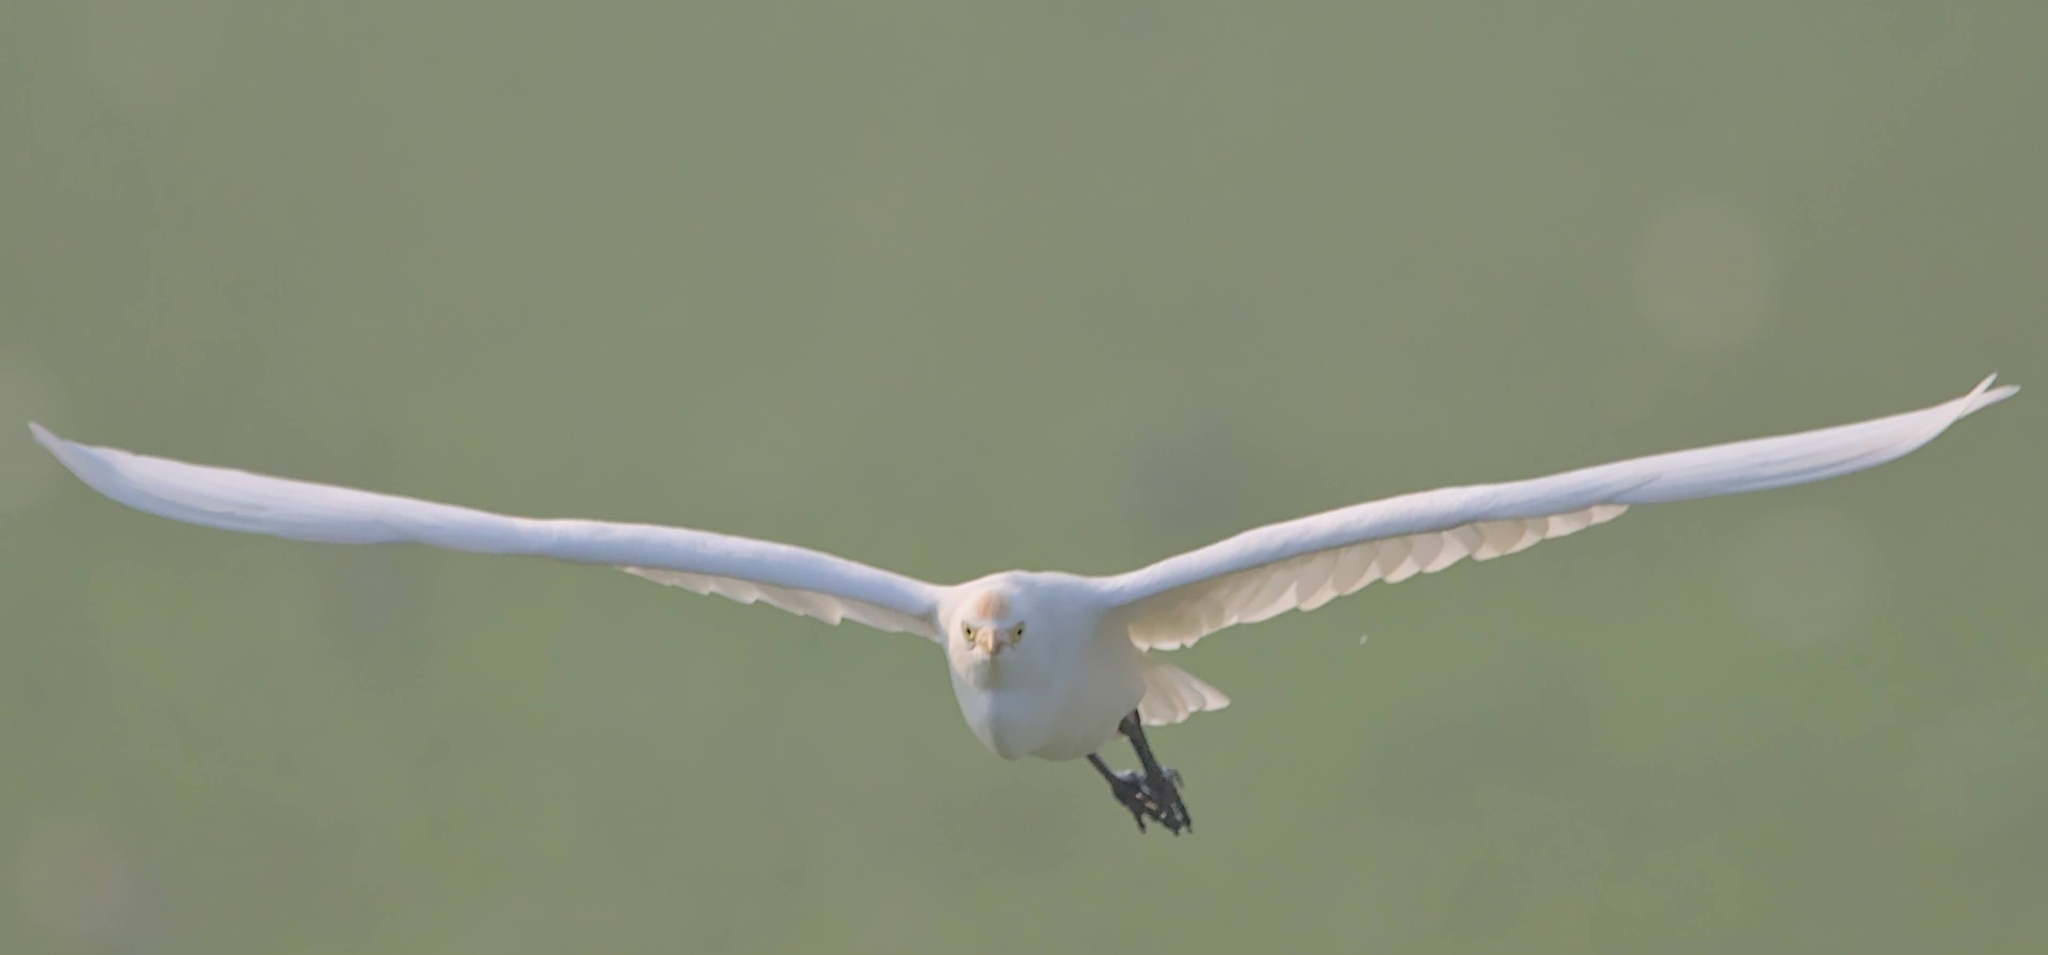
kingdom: Animalia
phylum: Chordata
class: Aves
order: Pelecaniformes
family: Ardeidae
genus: Bubulcus
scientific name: Bubulcus coromandus
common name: Eastern cattle egret
